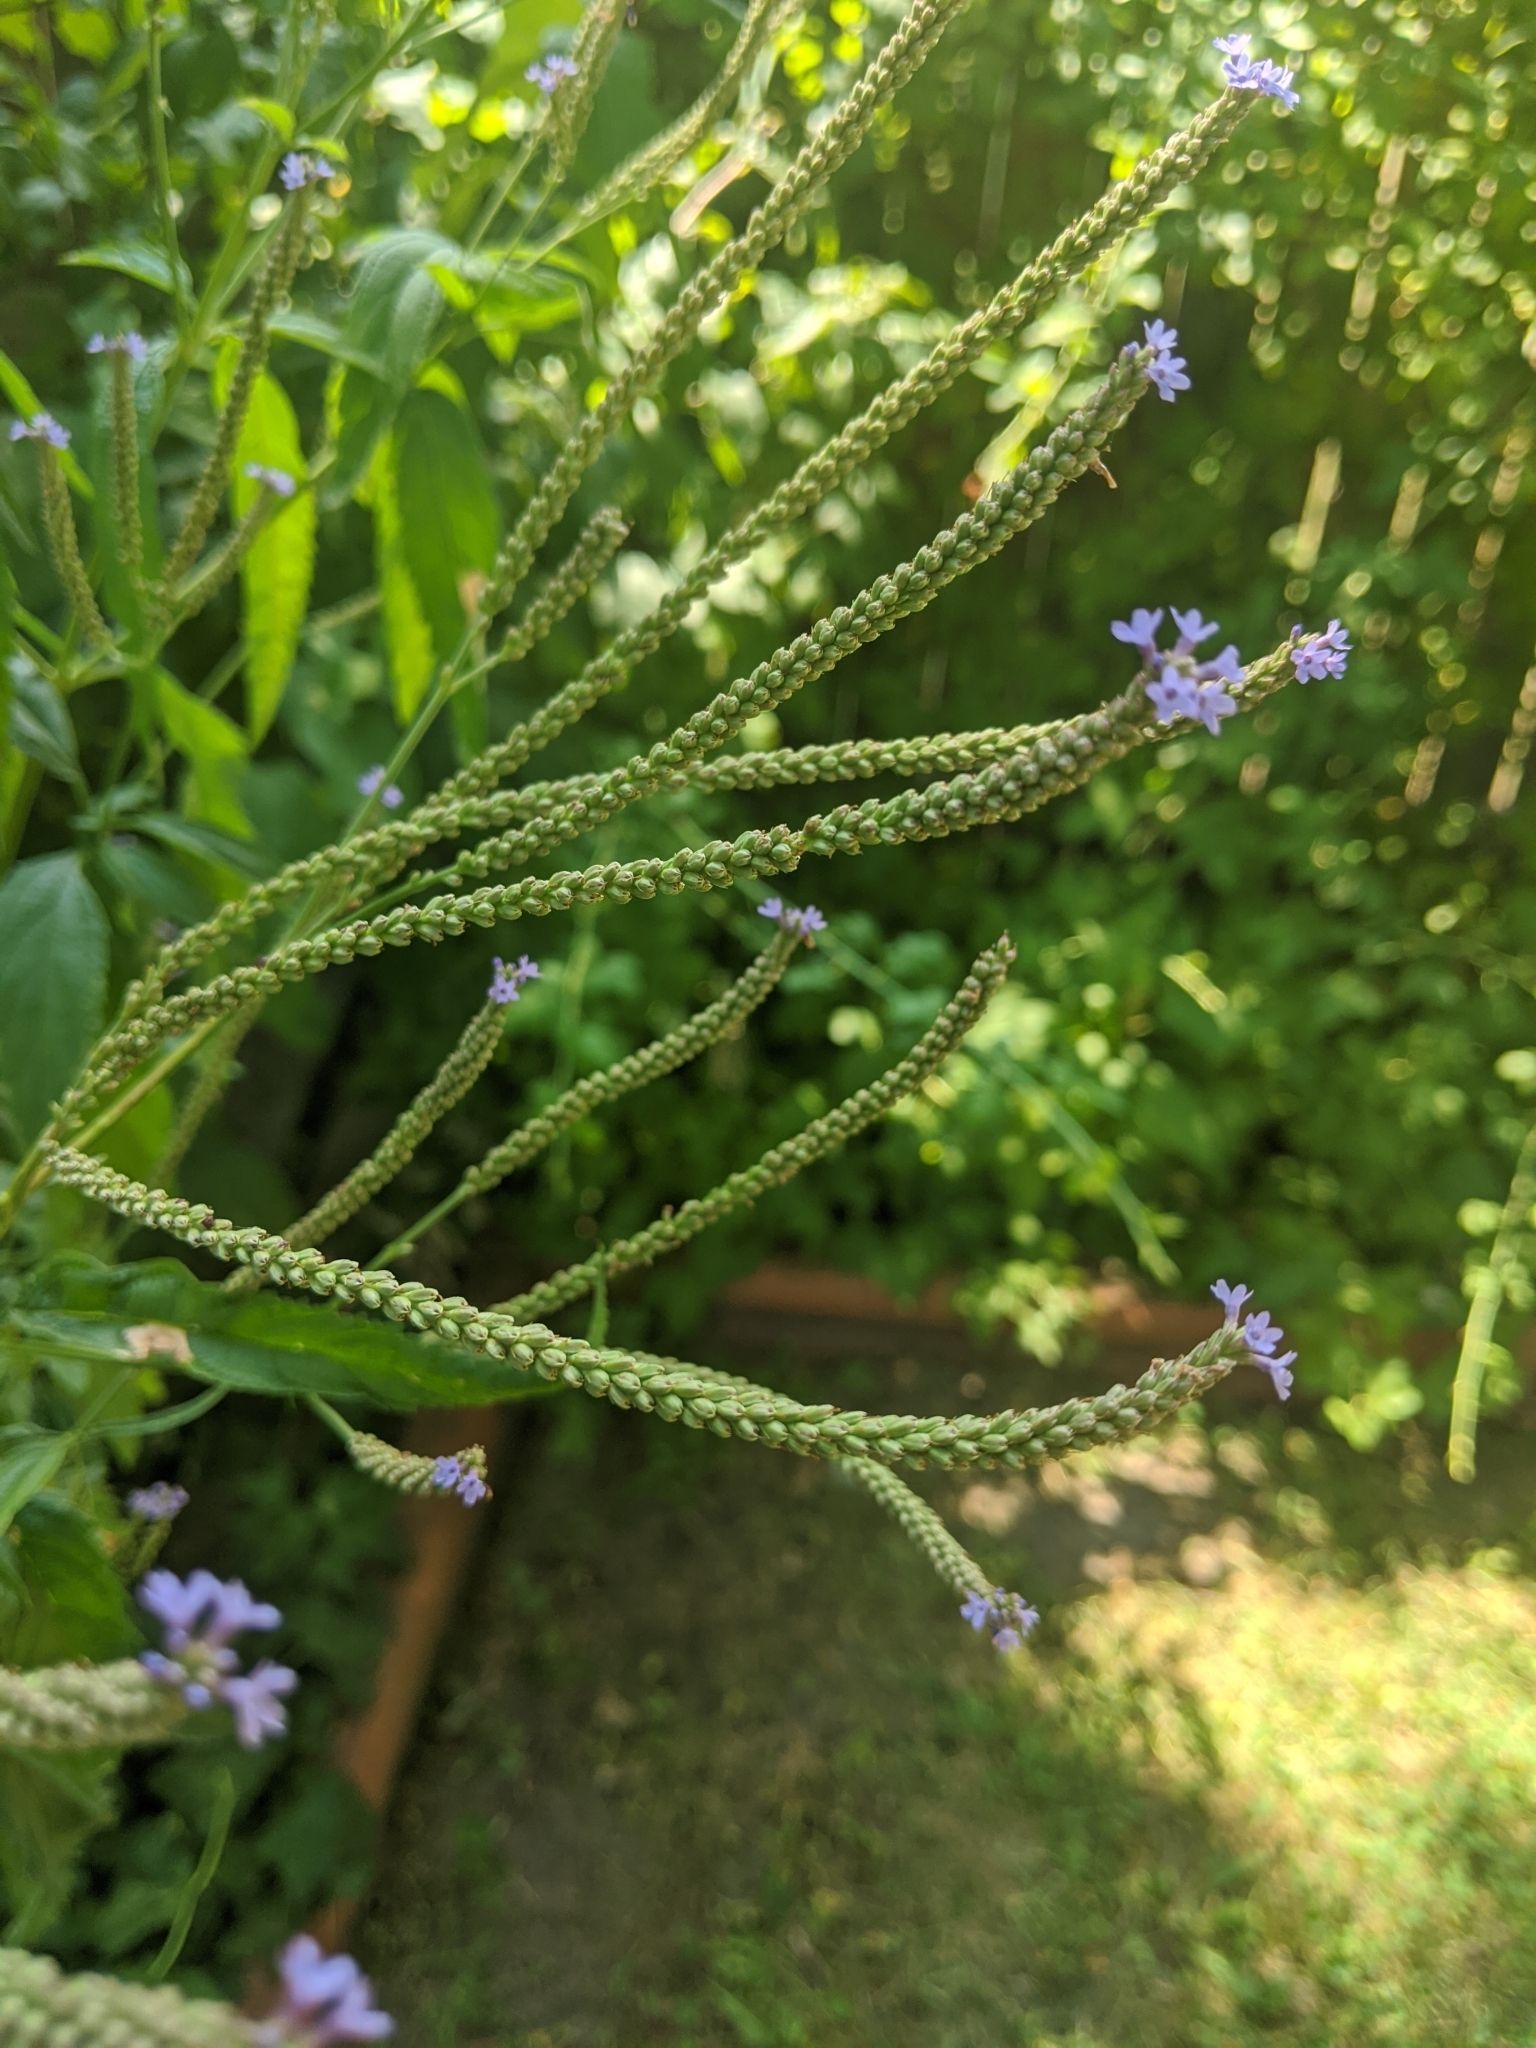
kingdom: Plantae
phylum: Tracheophyta
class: Magnoliopsida
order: Lamiales
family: Verbenaceae
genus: Verbena
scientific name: Verbena hastata
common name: American blue vervain
